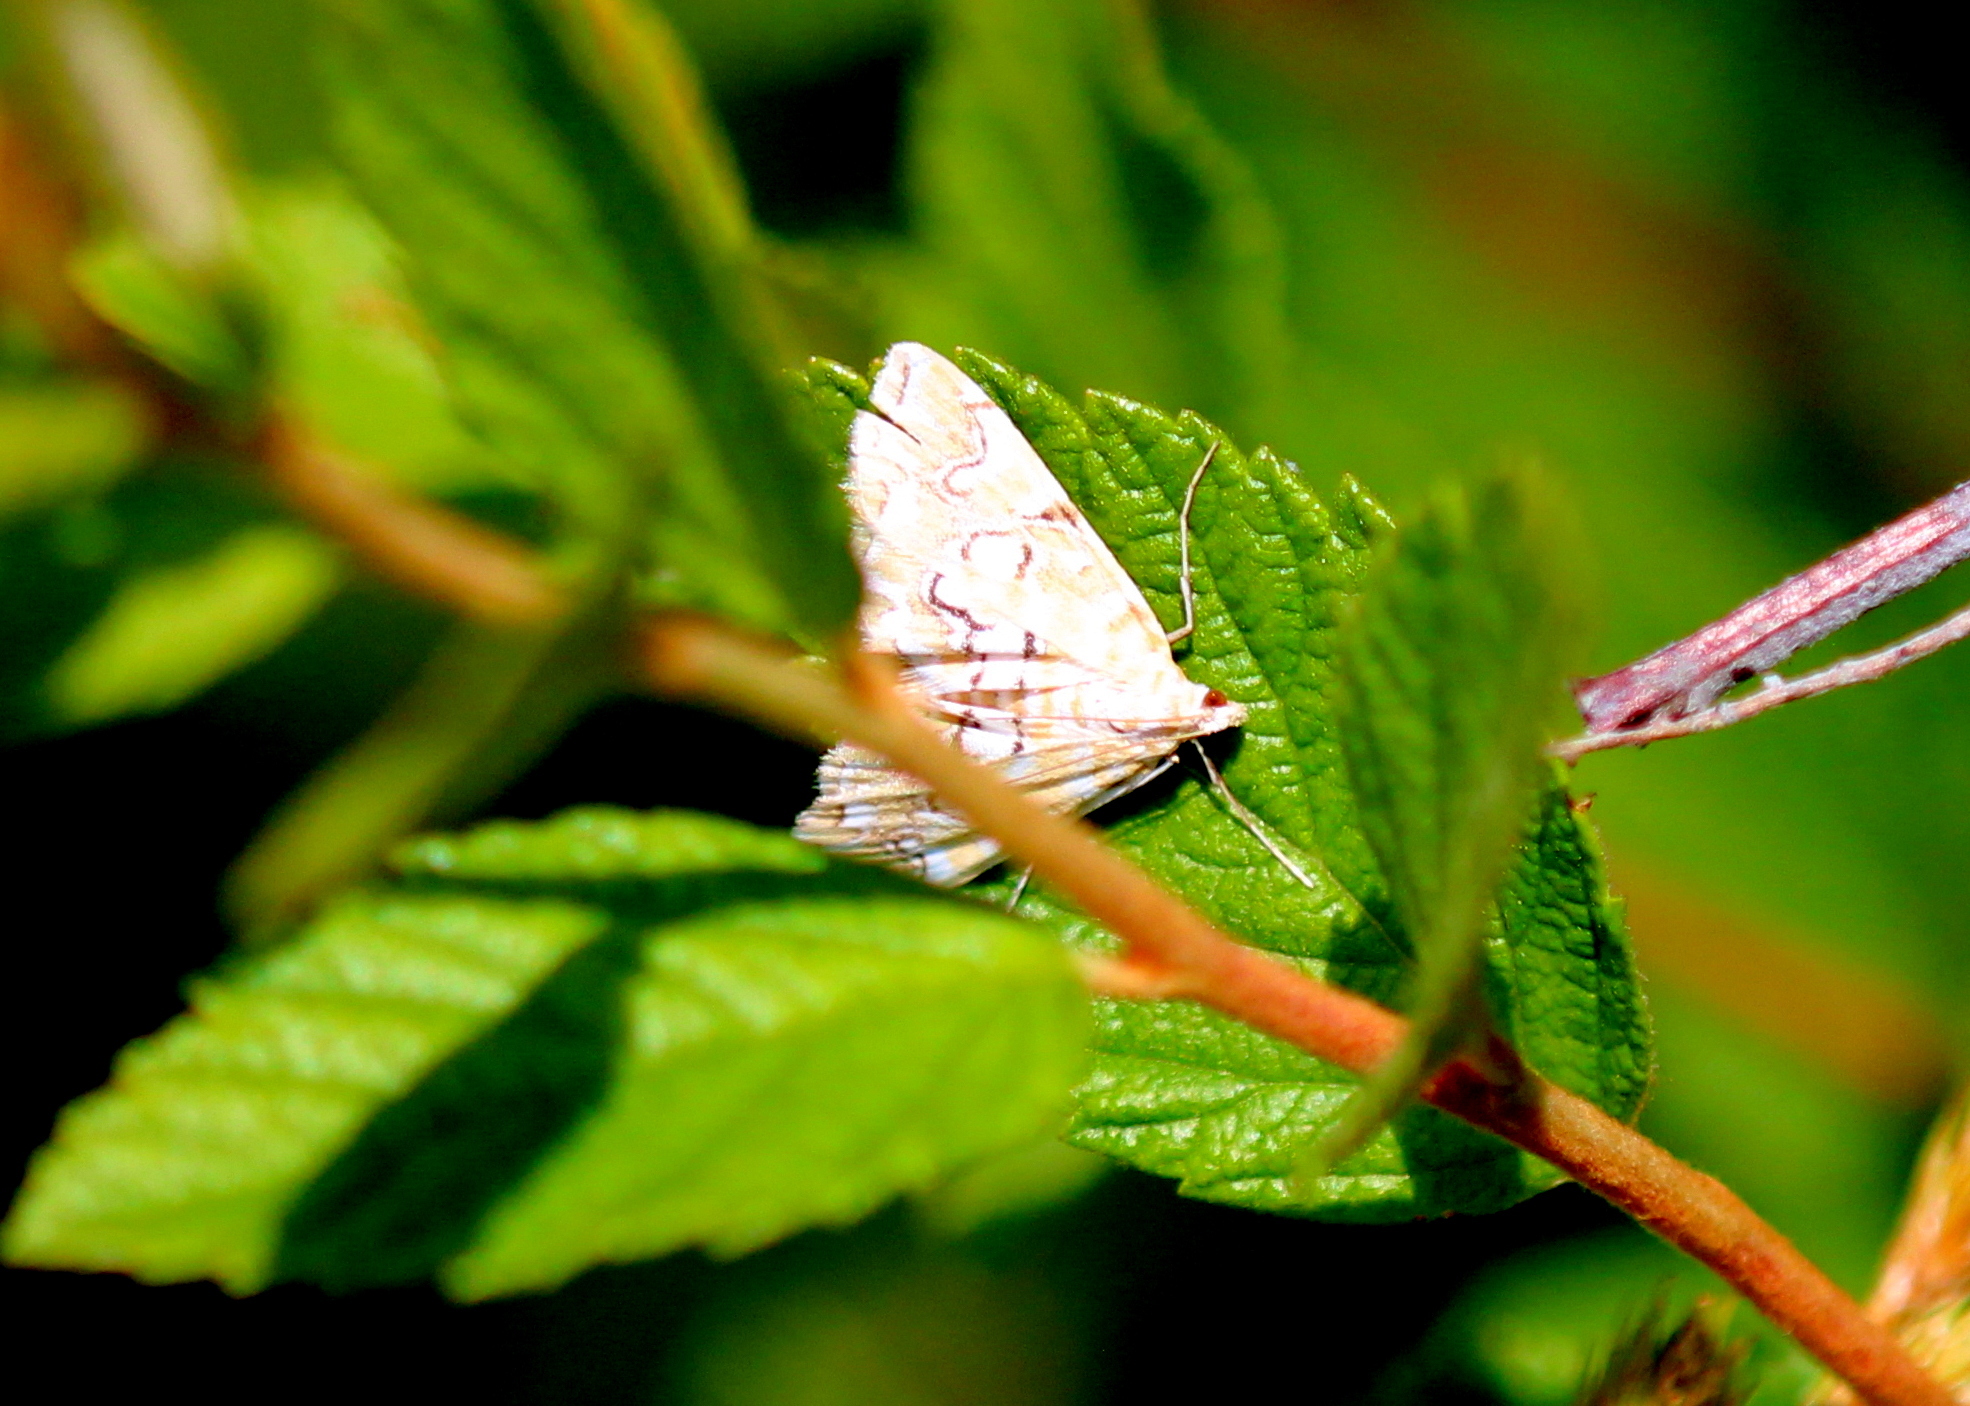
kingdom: Animalia
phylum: Arthropoda
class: Insecta
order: Lepidoptera
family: Crambidae
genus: Elophila
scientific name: Elophila icciusalis
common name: Pondside pyralid moth
